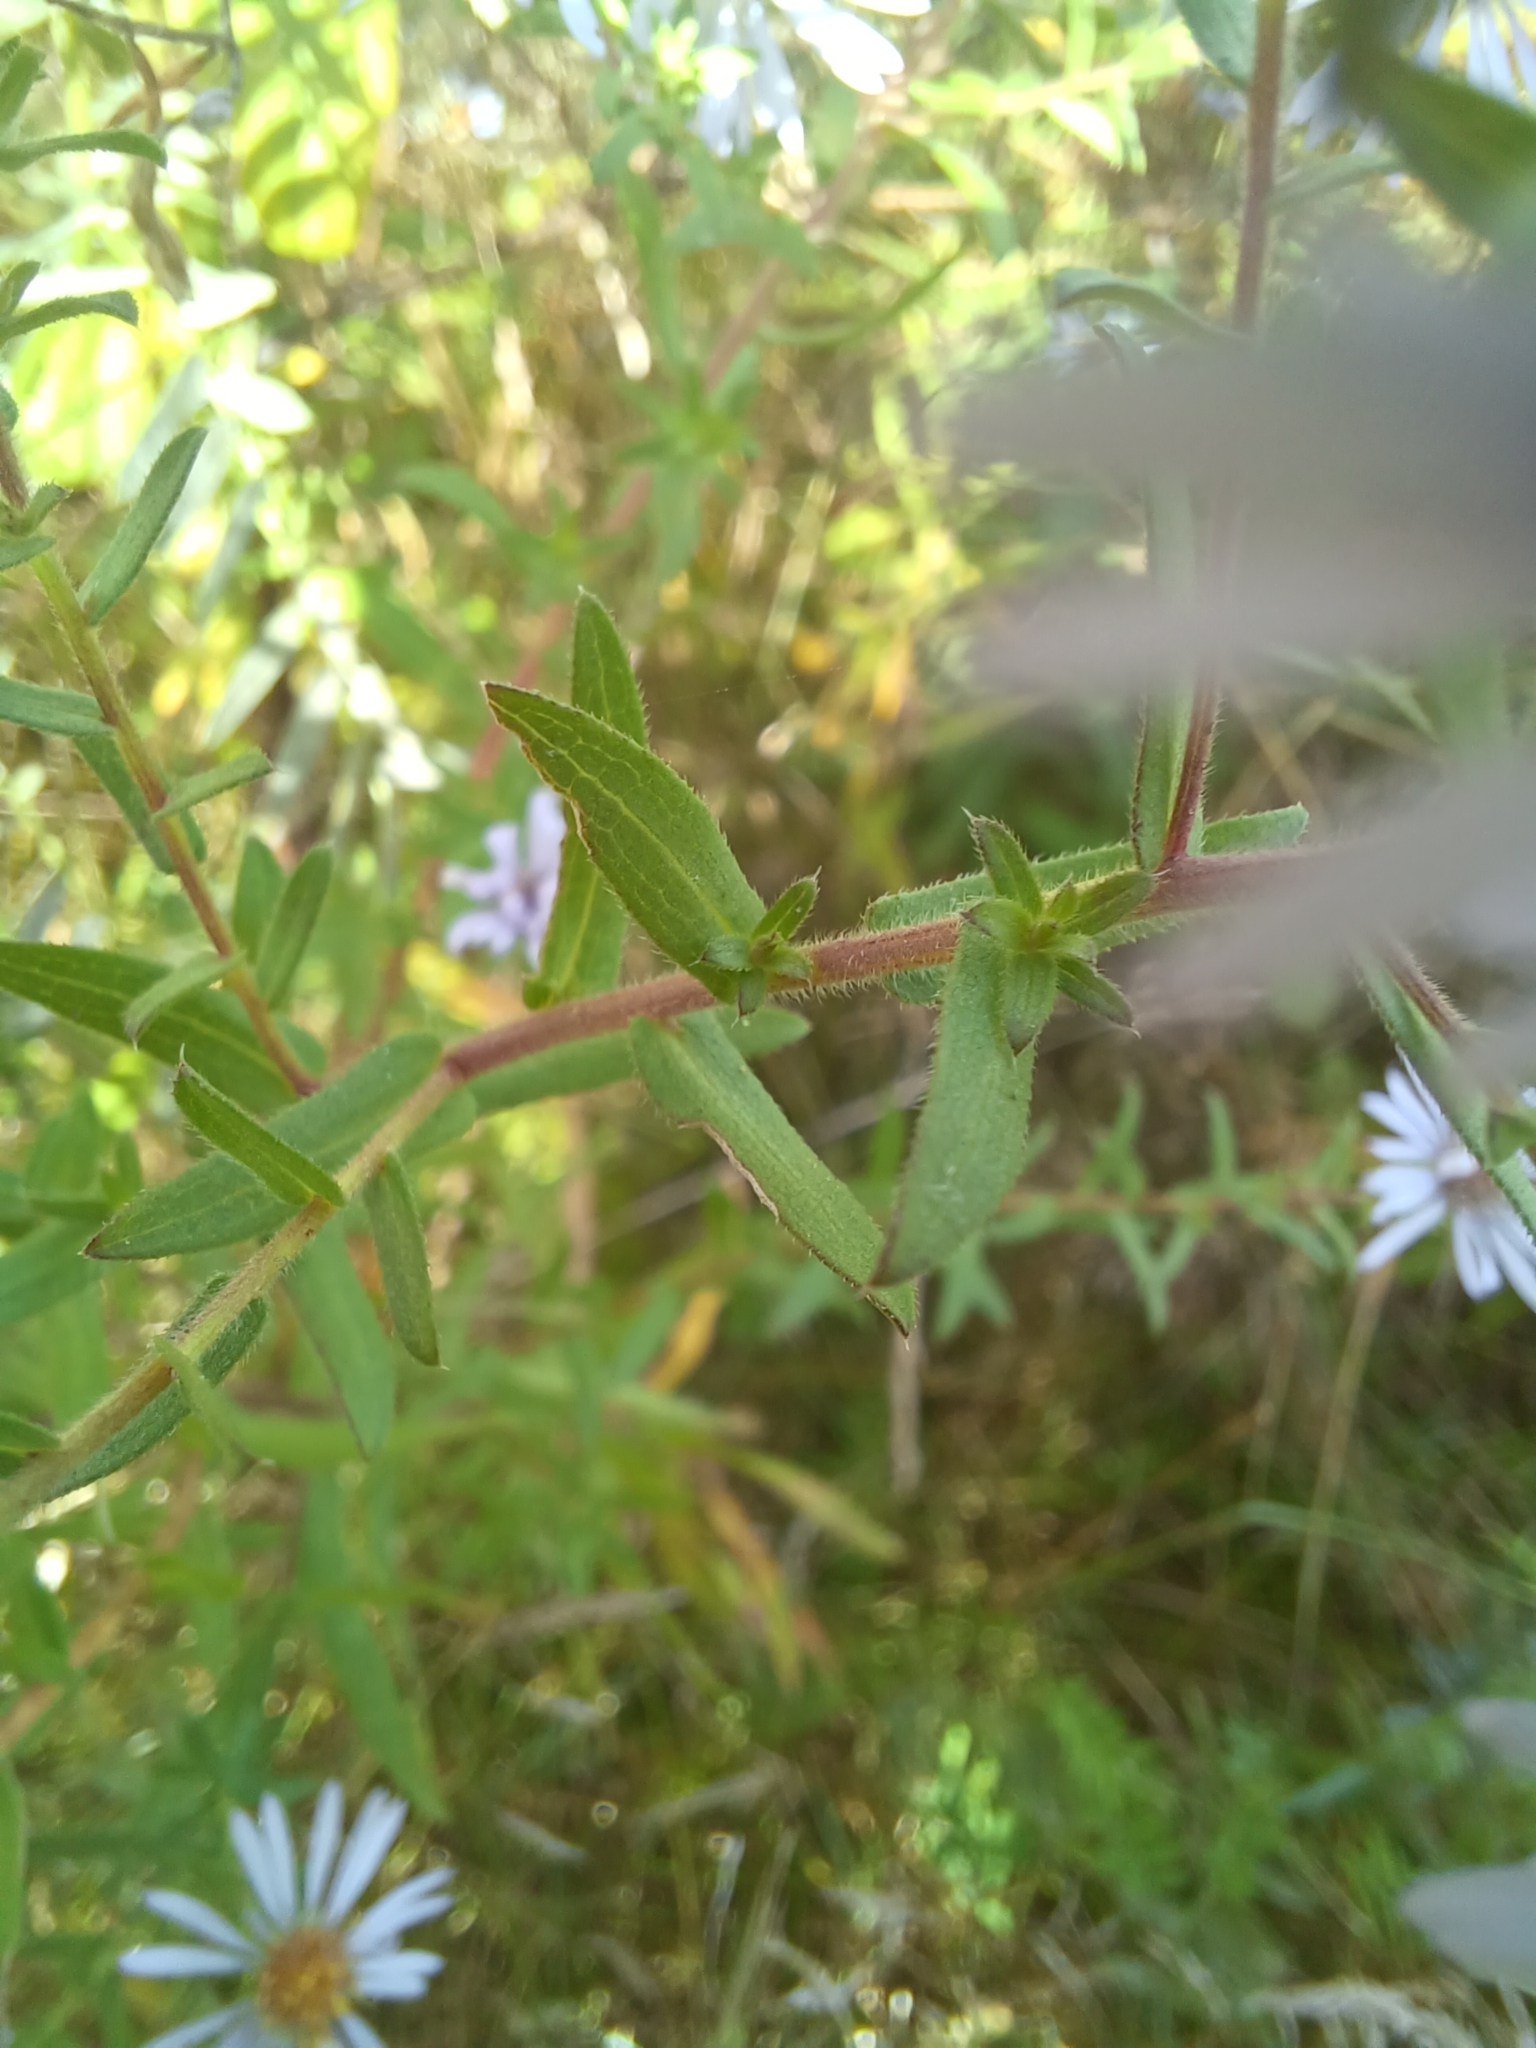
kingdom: Plantae
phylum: Tracheophyta
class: Magnoliopsida
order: Asterales
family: Asteraceae
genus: Symphyotrichum
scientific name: Symphyotrichum amethystinum
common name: Amethyst aster
